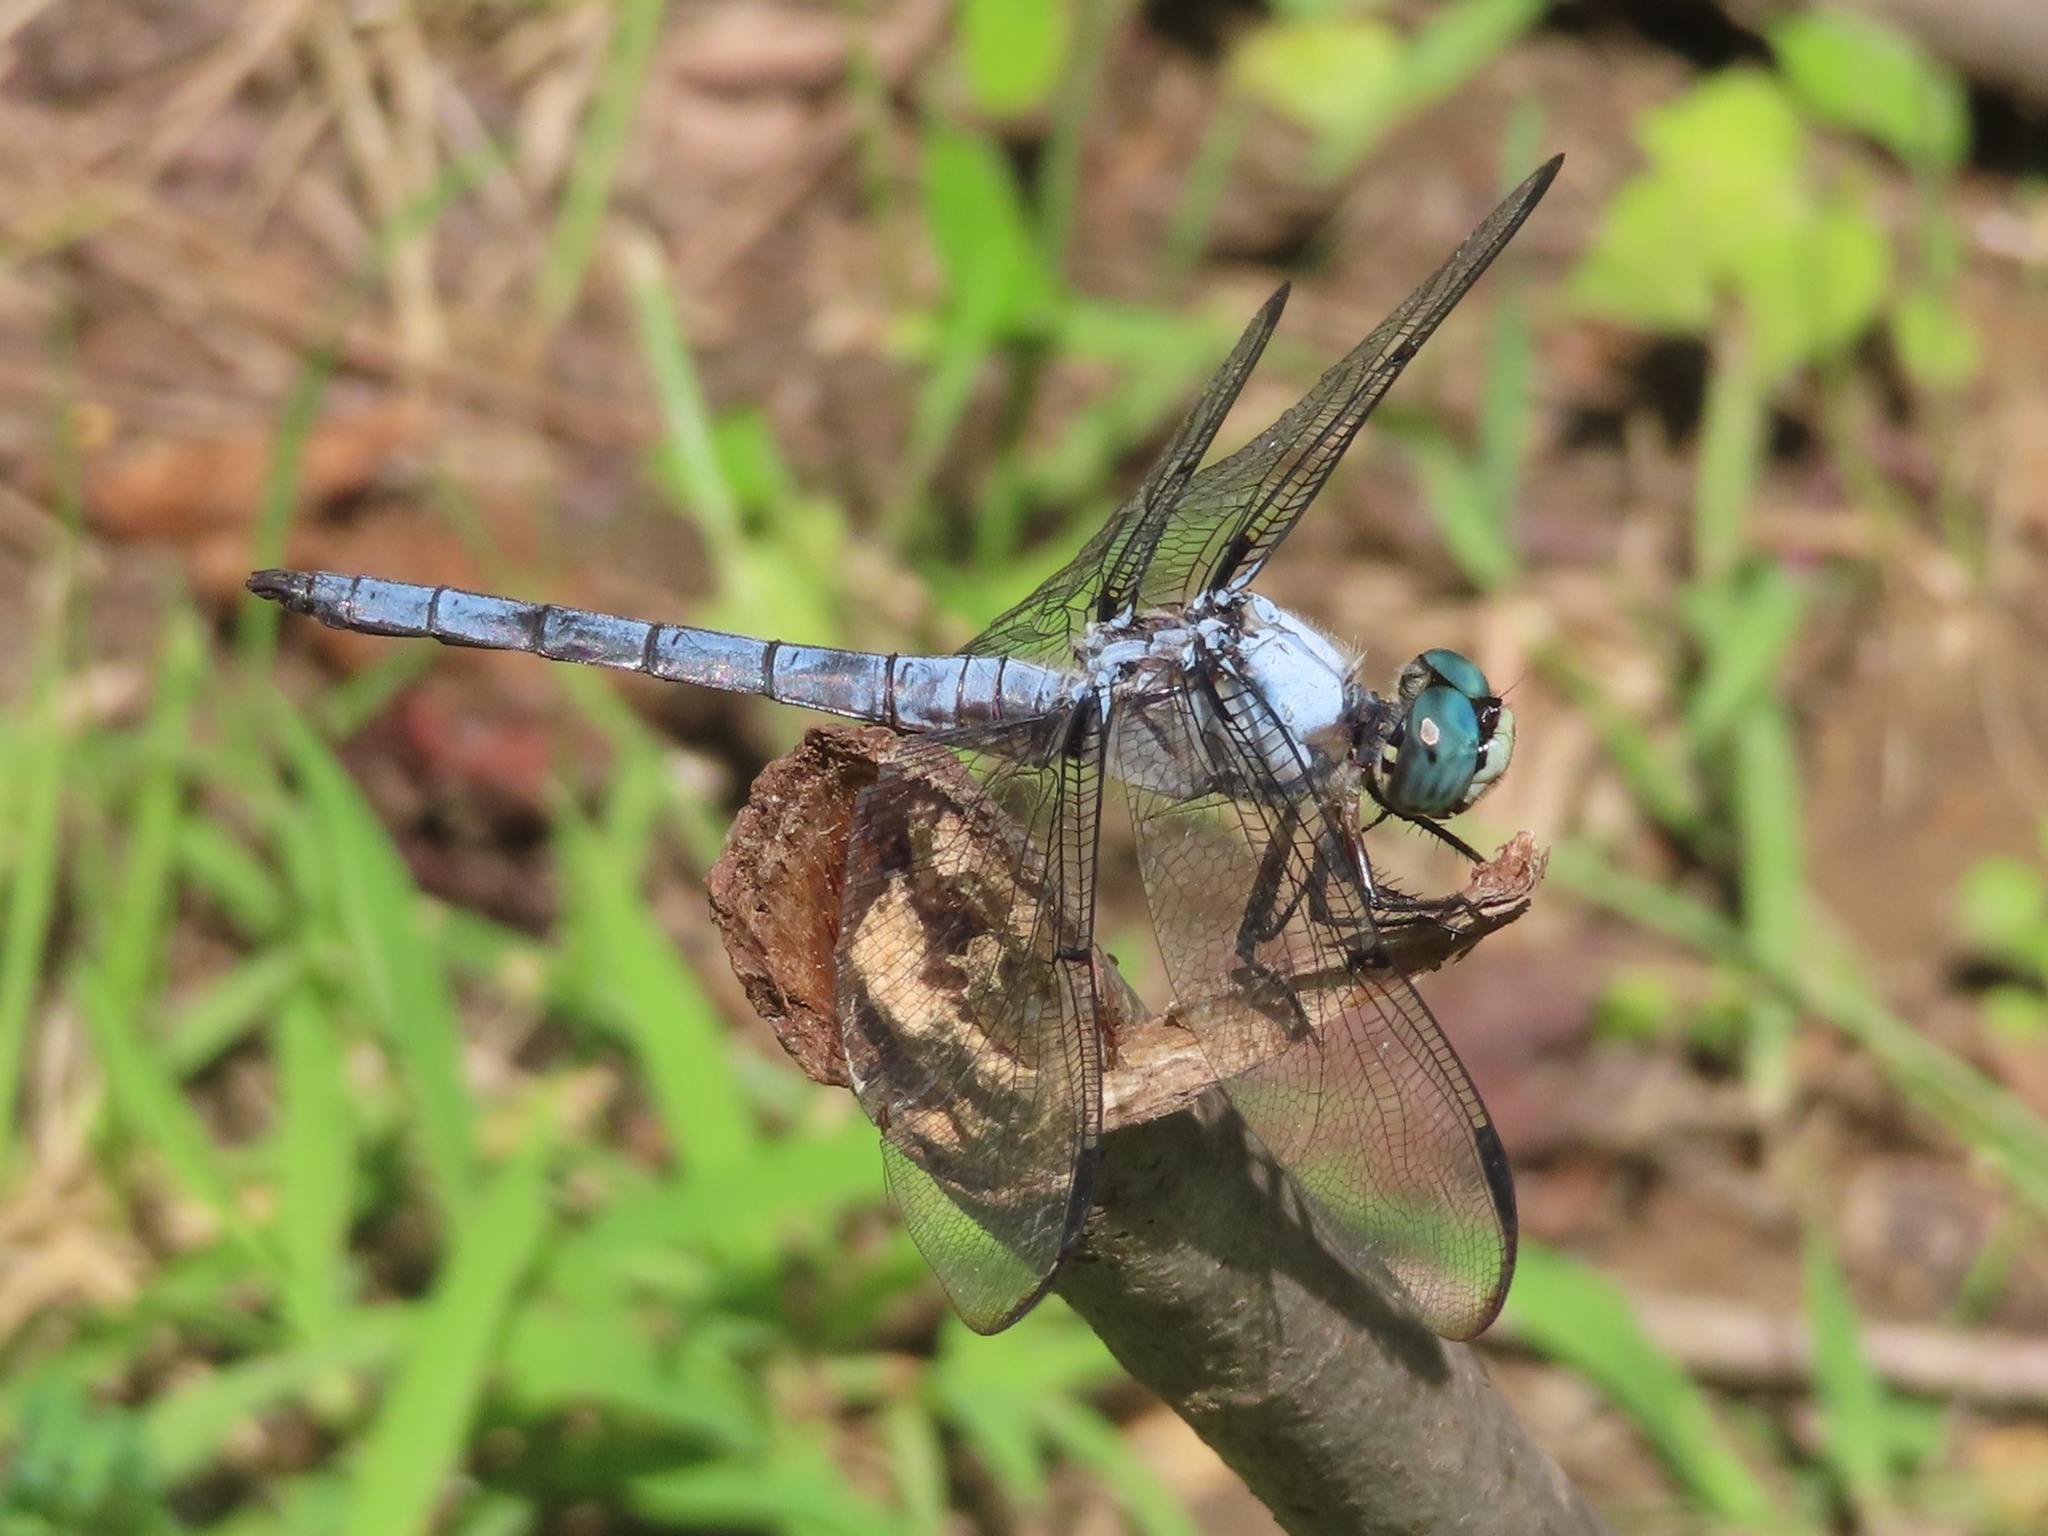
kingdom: Animalia
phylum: Arthropoda
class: Insecta
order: Odonata
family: Libellulidae
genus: Libellula
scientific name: Libellula vibrans
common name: Great blue skimmer
